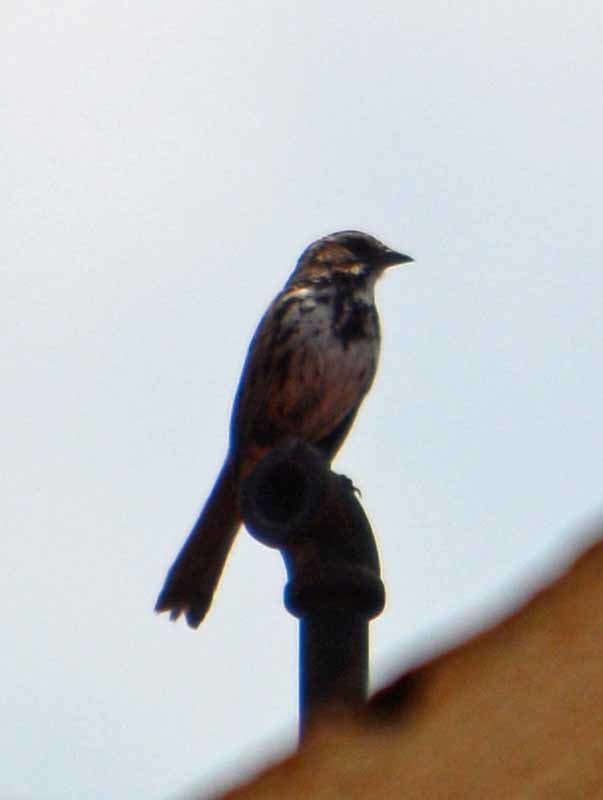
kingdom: Animalia
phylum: Chordata
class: Aves
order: Passeriformes
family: Passerellidae
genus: Melospiza
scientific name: Melospiza melodia
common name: Song sparrow
